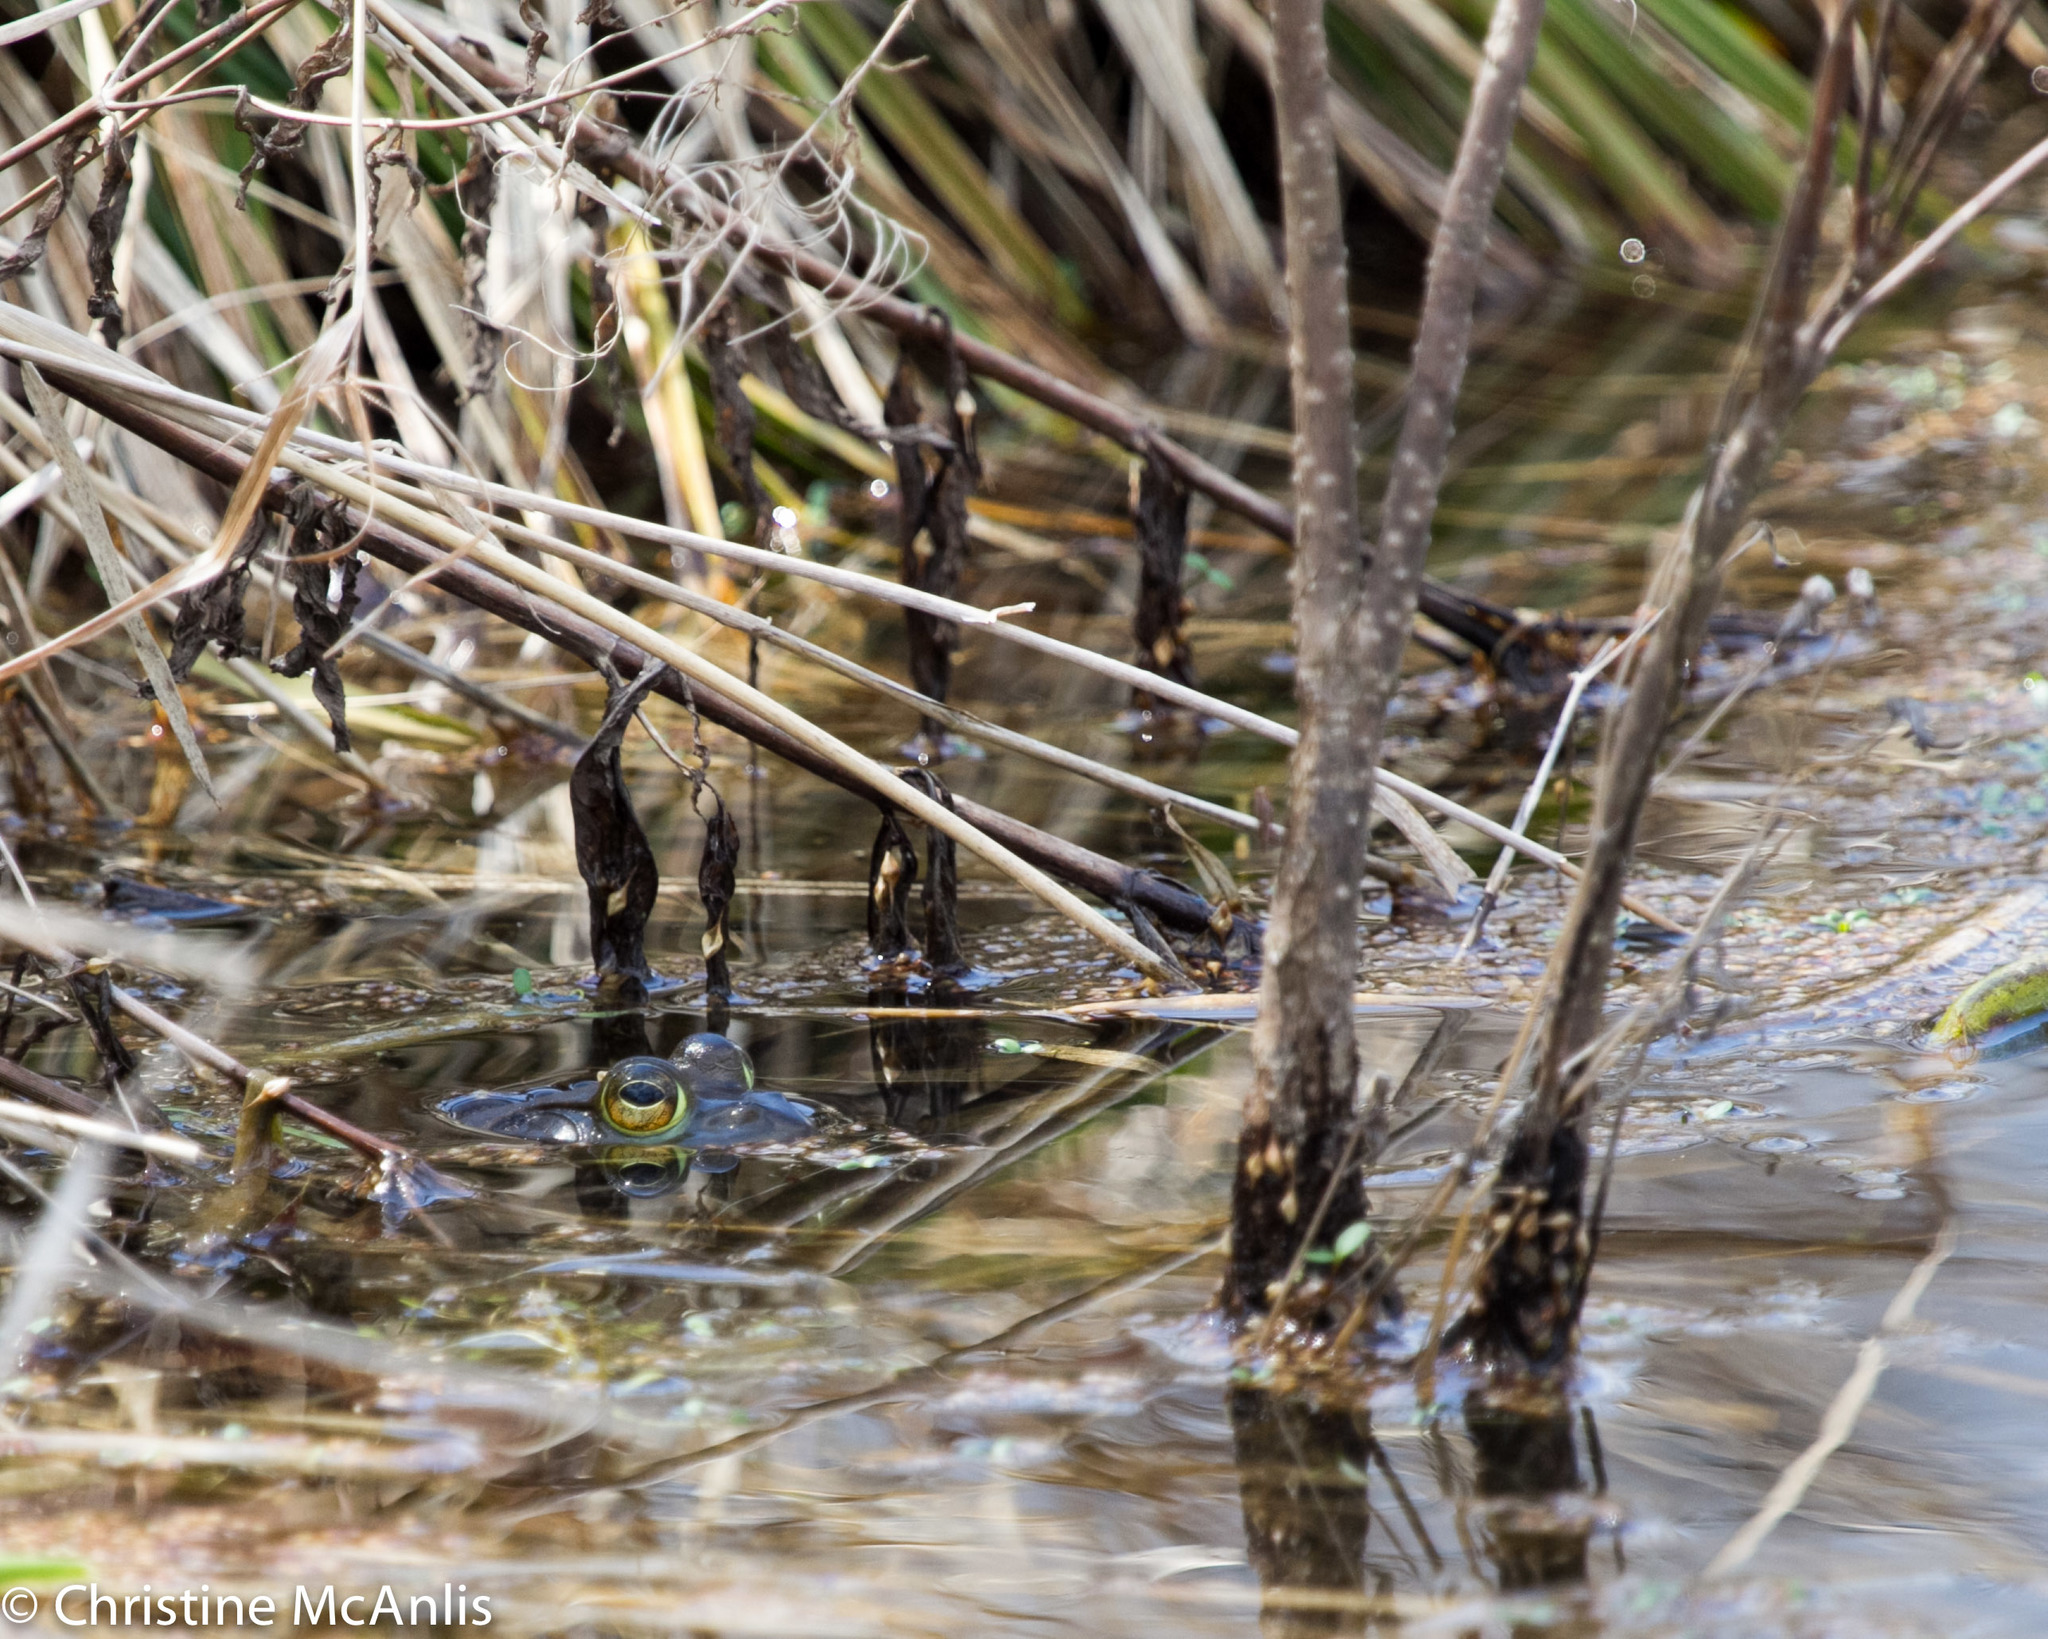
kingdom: Animalia
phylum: Chordata
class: Amphibia
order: Anura
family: Ranidae
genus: Lithobates
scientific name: Lithobates
